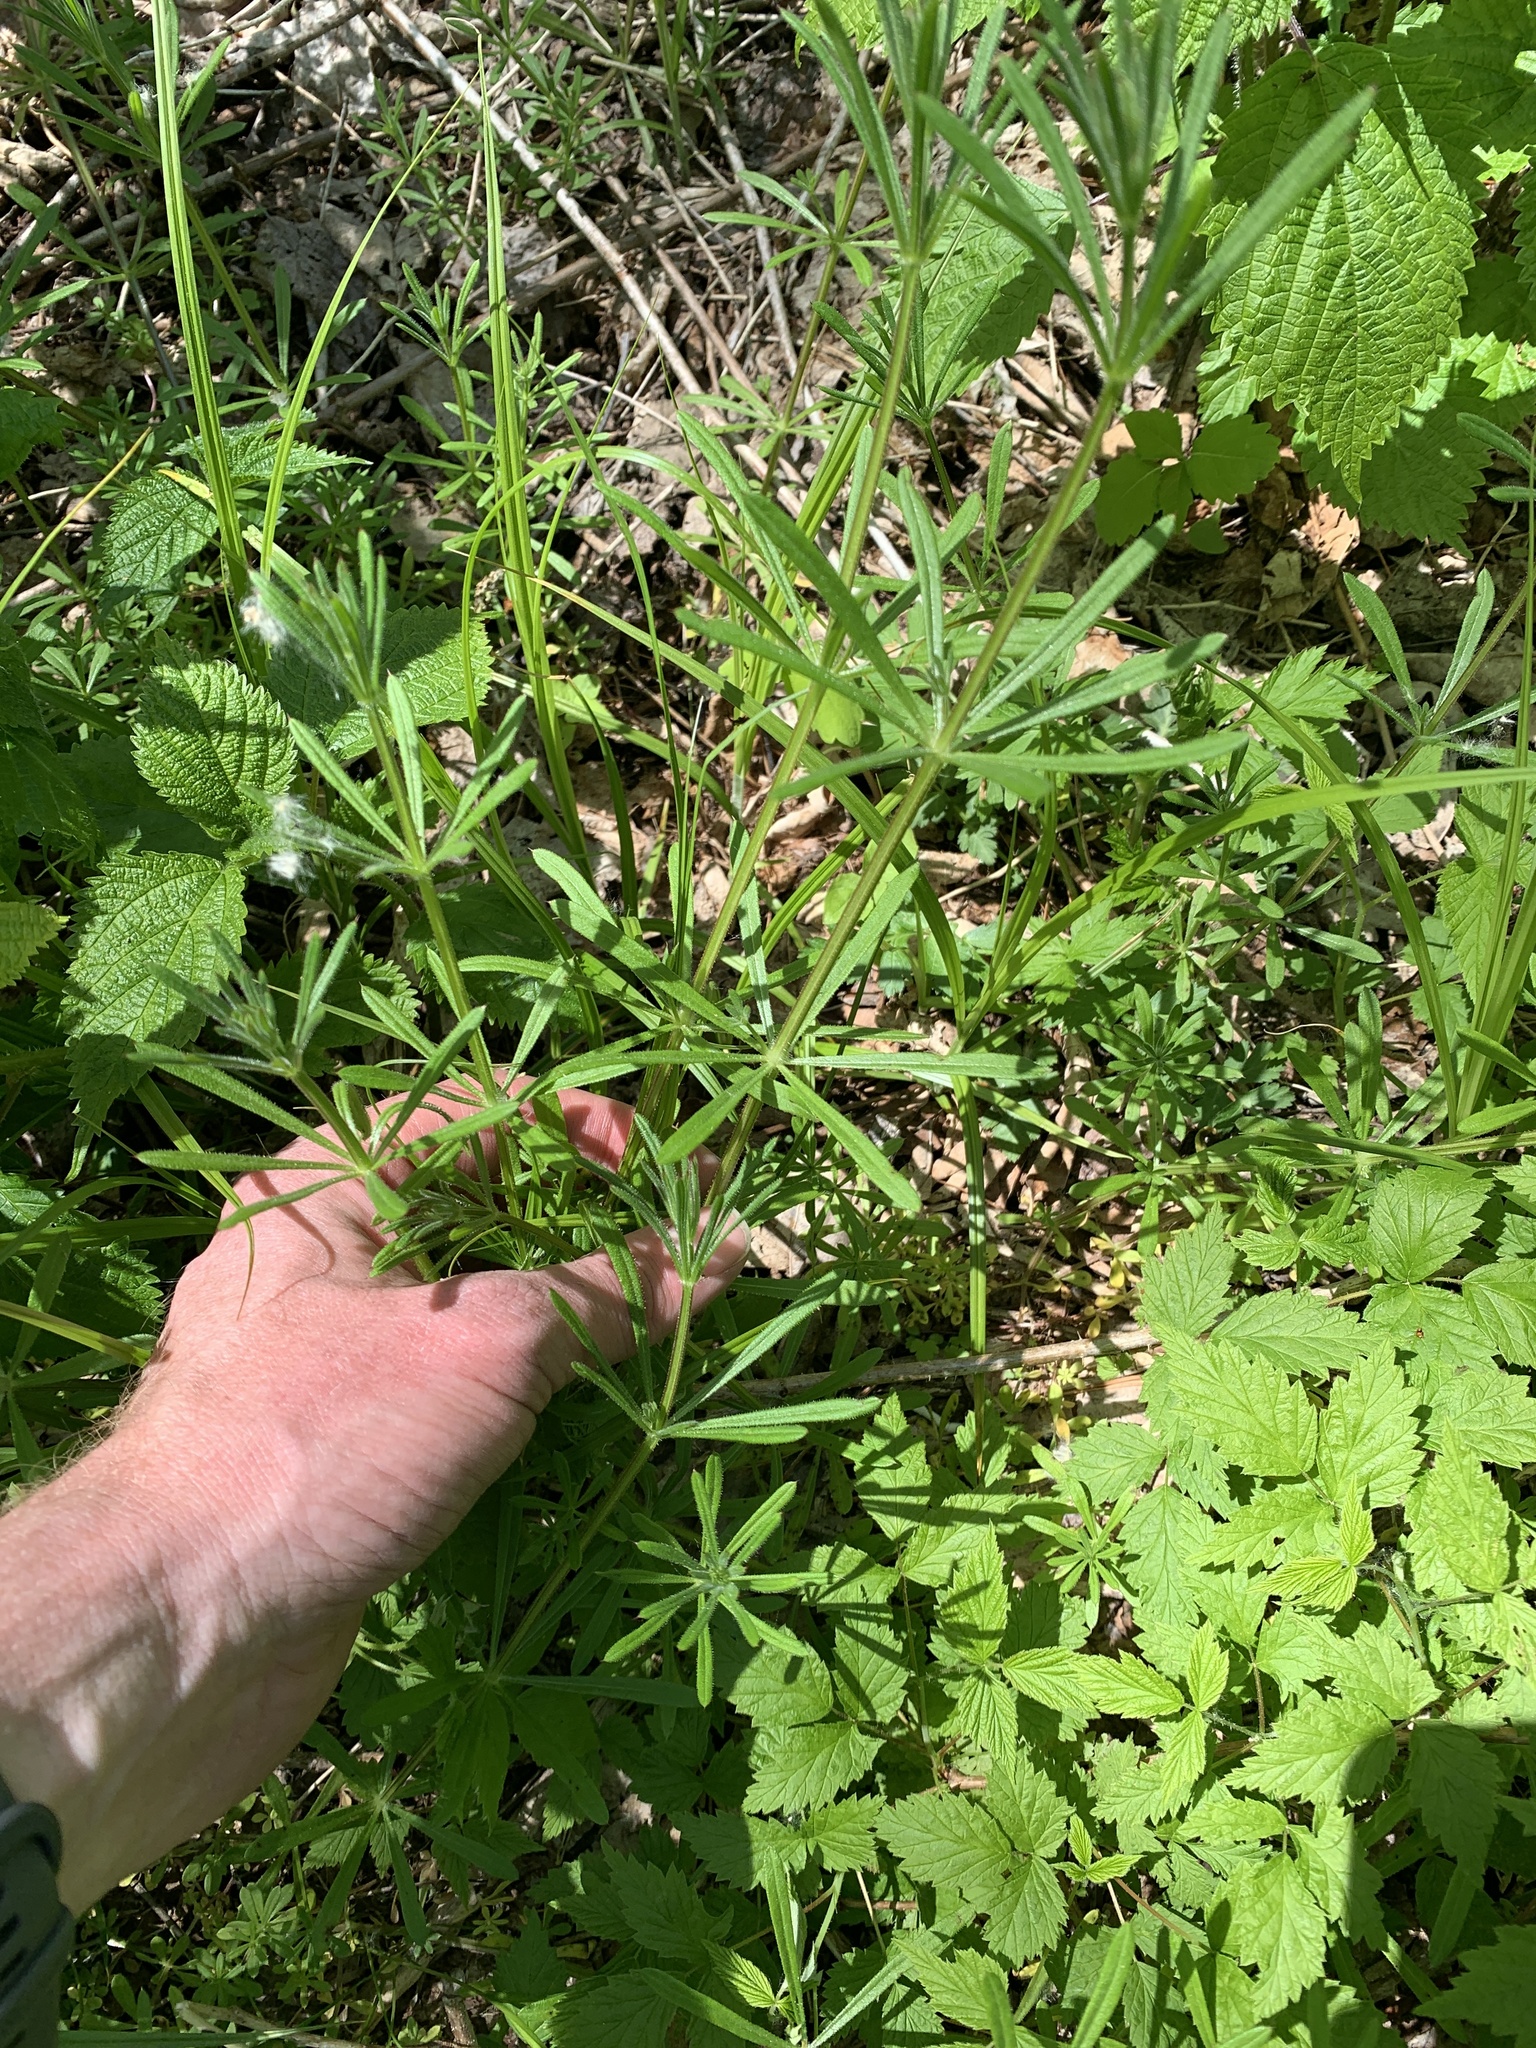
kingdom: Plantae
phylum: Tracheophyta
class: Magnoliopsida
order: Gentianales
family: Rubiaceae
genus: Galium
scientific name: Galium aparine
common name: Cleavers
